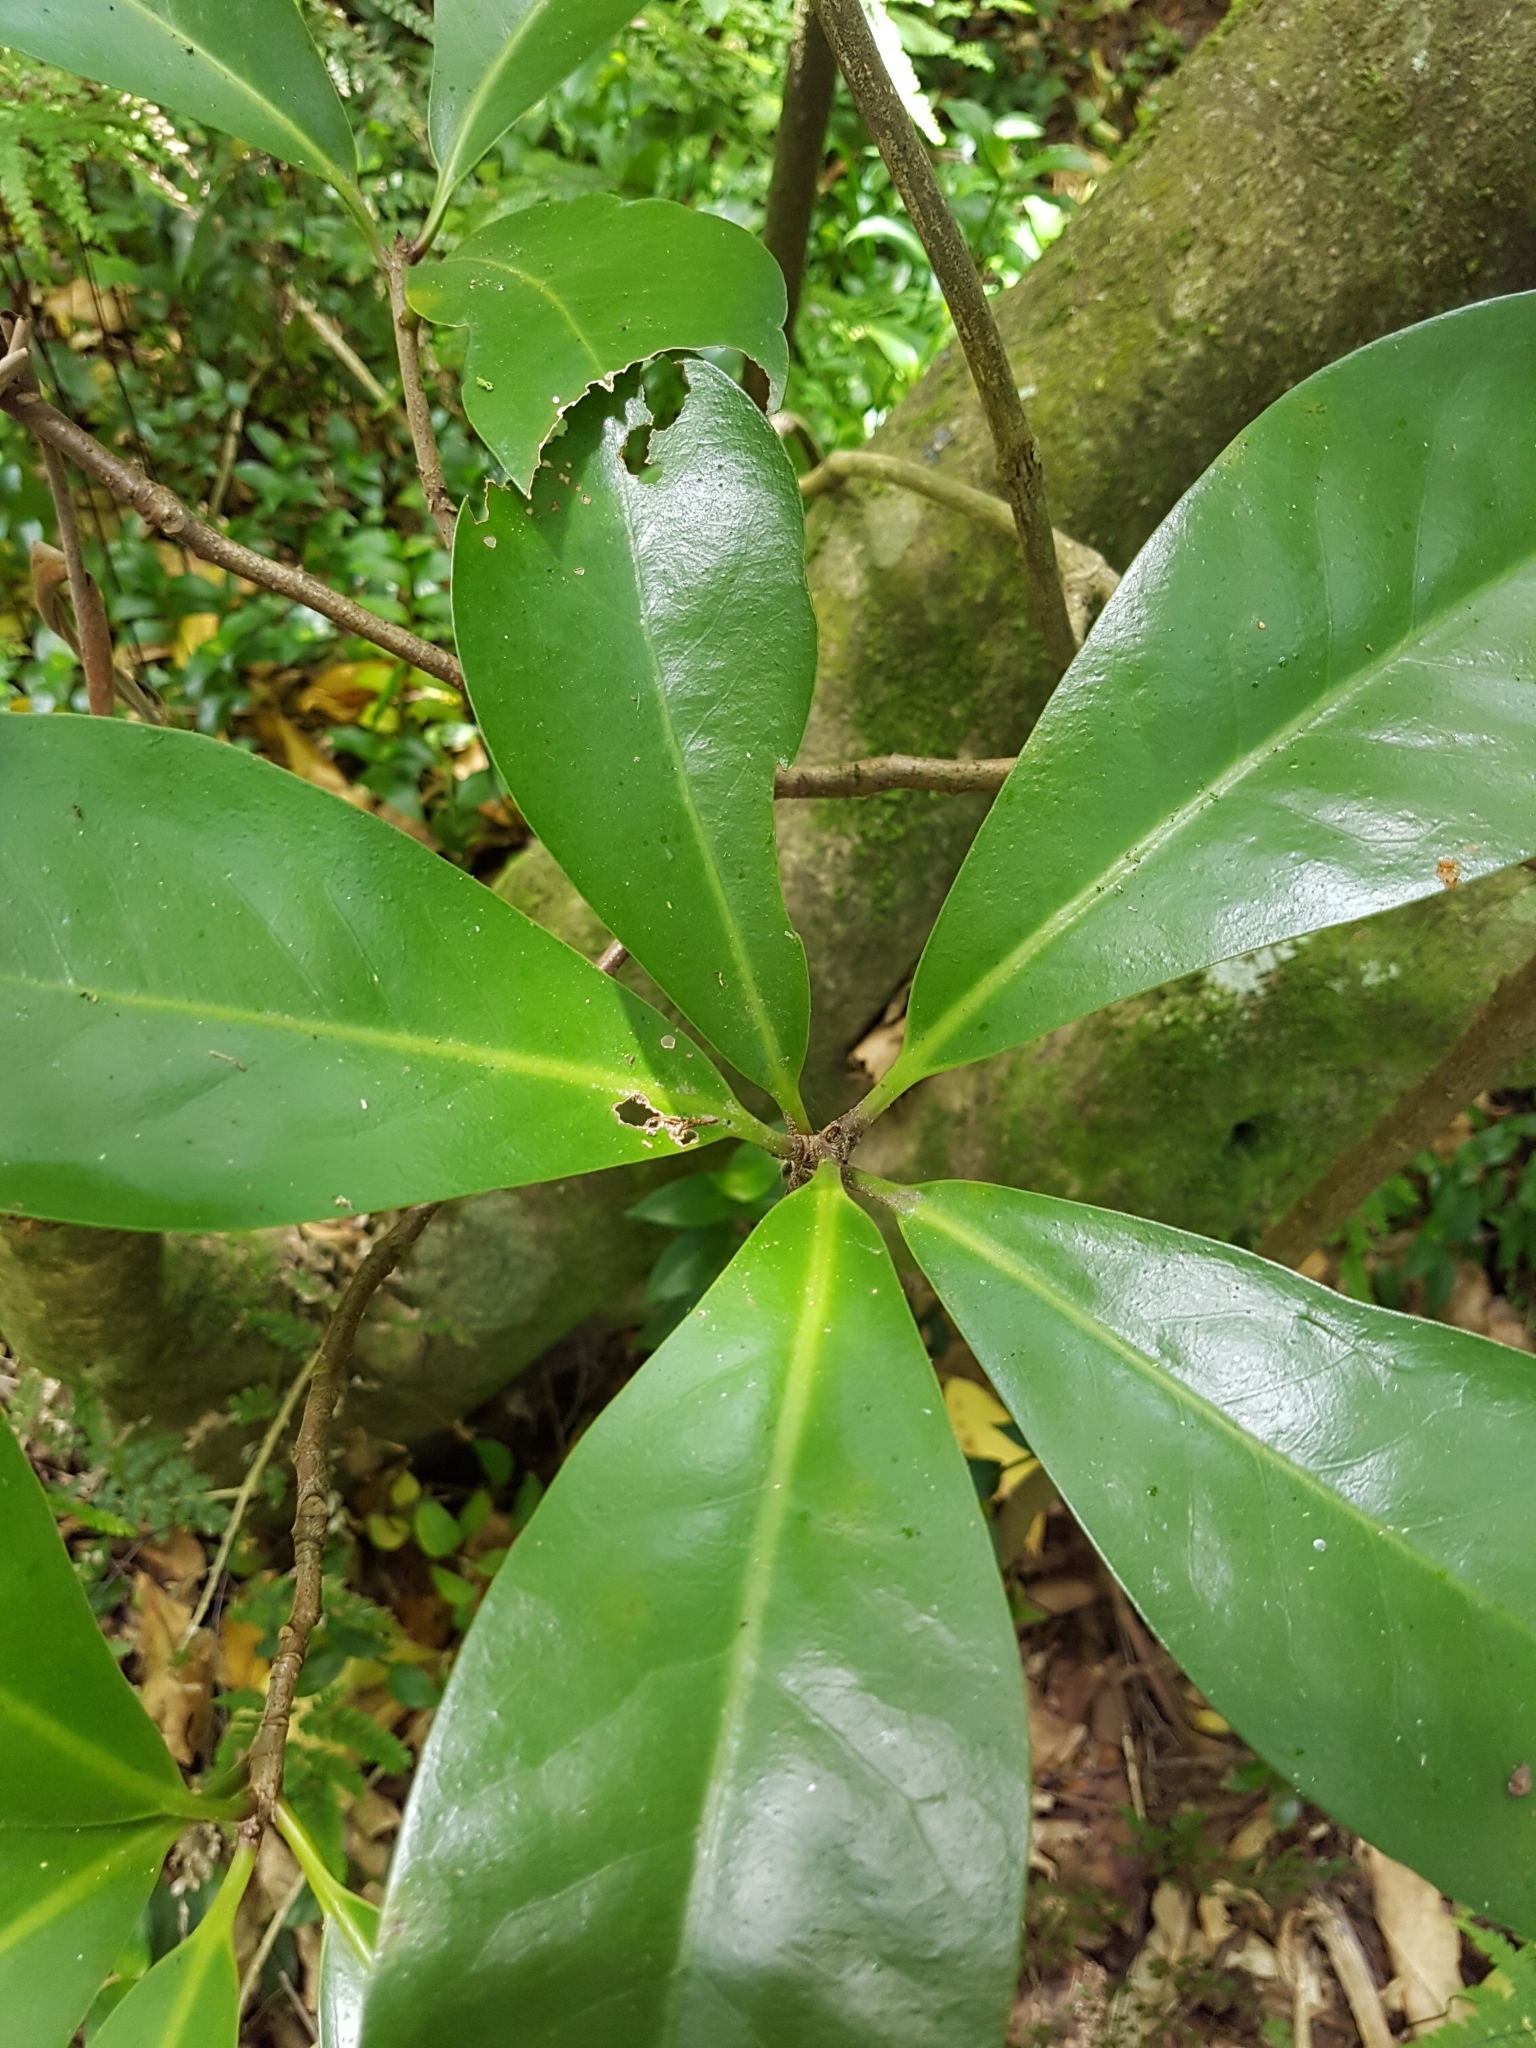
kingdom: Plantae
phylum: Tracheophyta
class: Magnoliopsida
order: Cucurbitales
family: Corynocarpaceae
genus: Corynocarpus
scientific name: Corynocarpus laevigatus
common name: New zealand laurel
